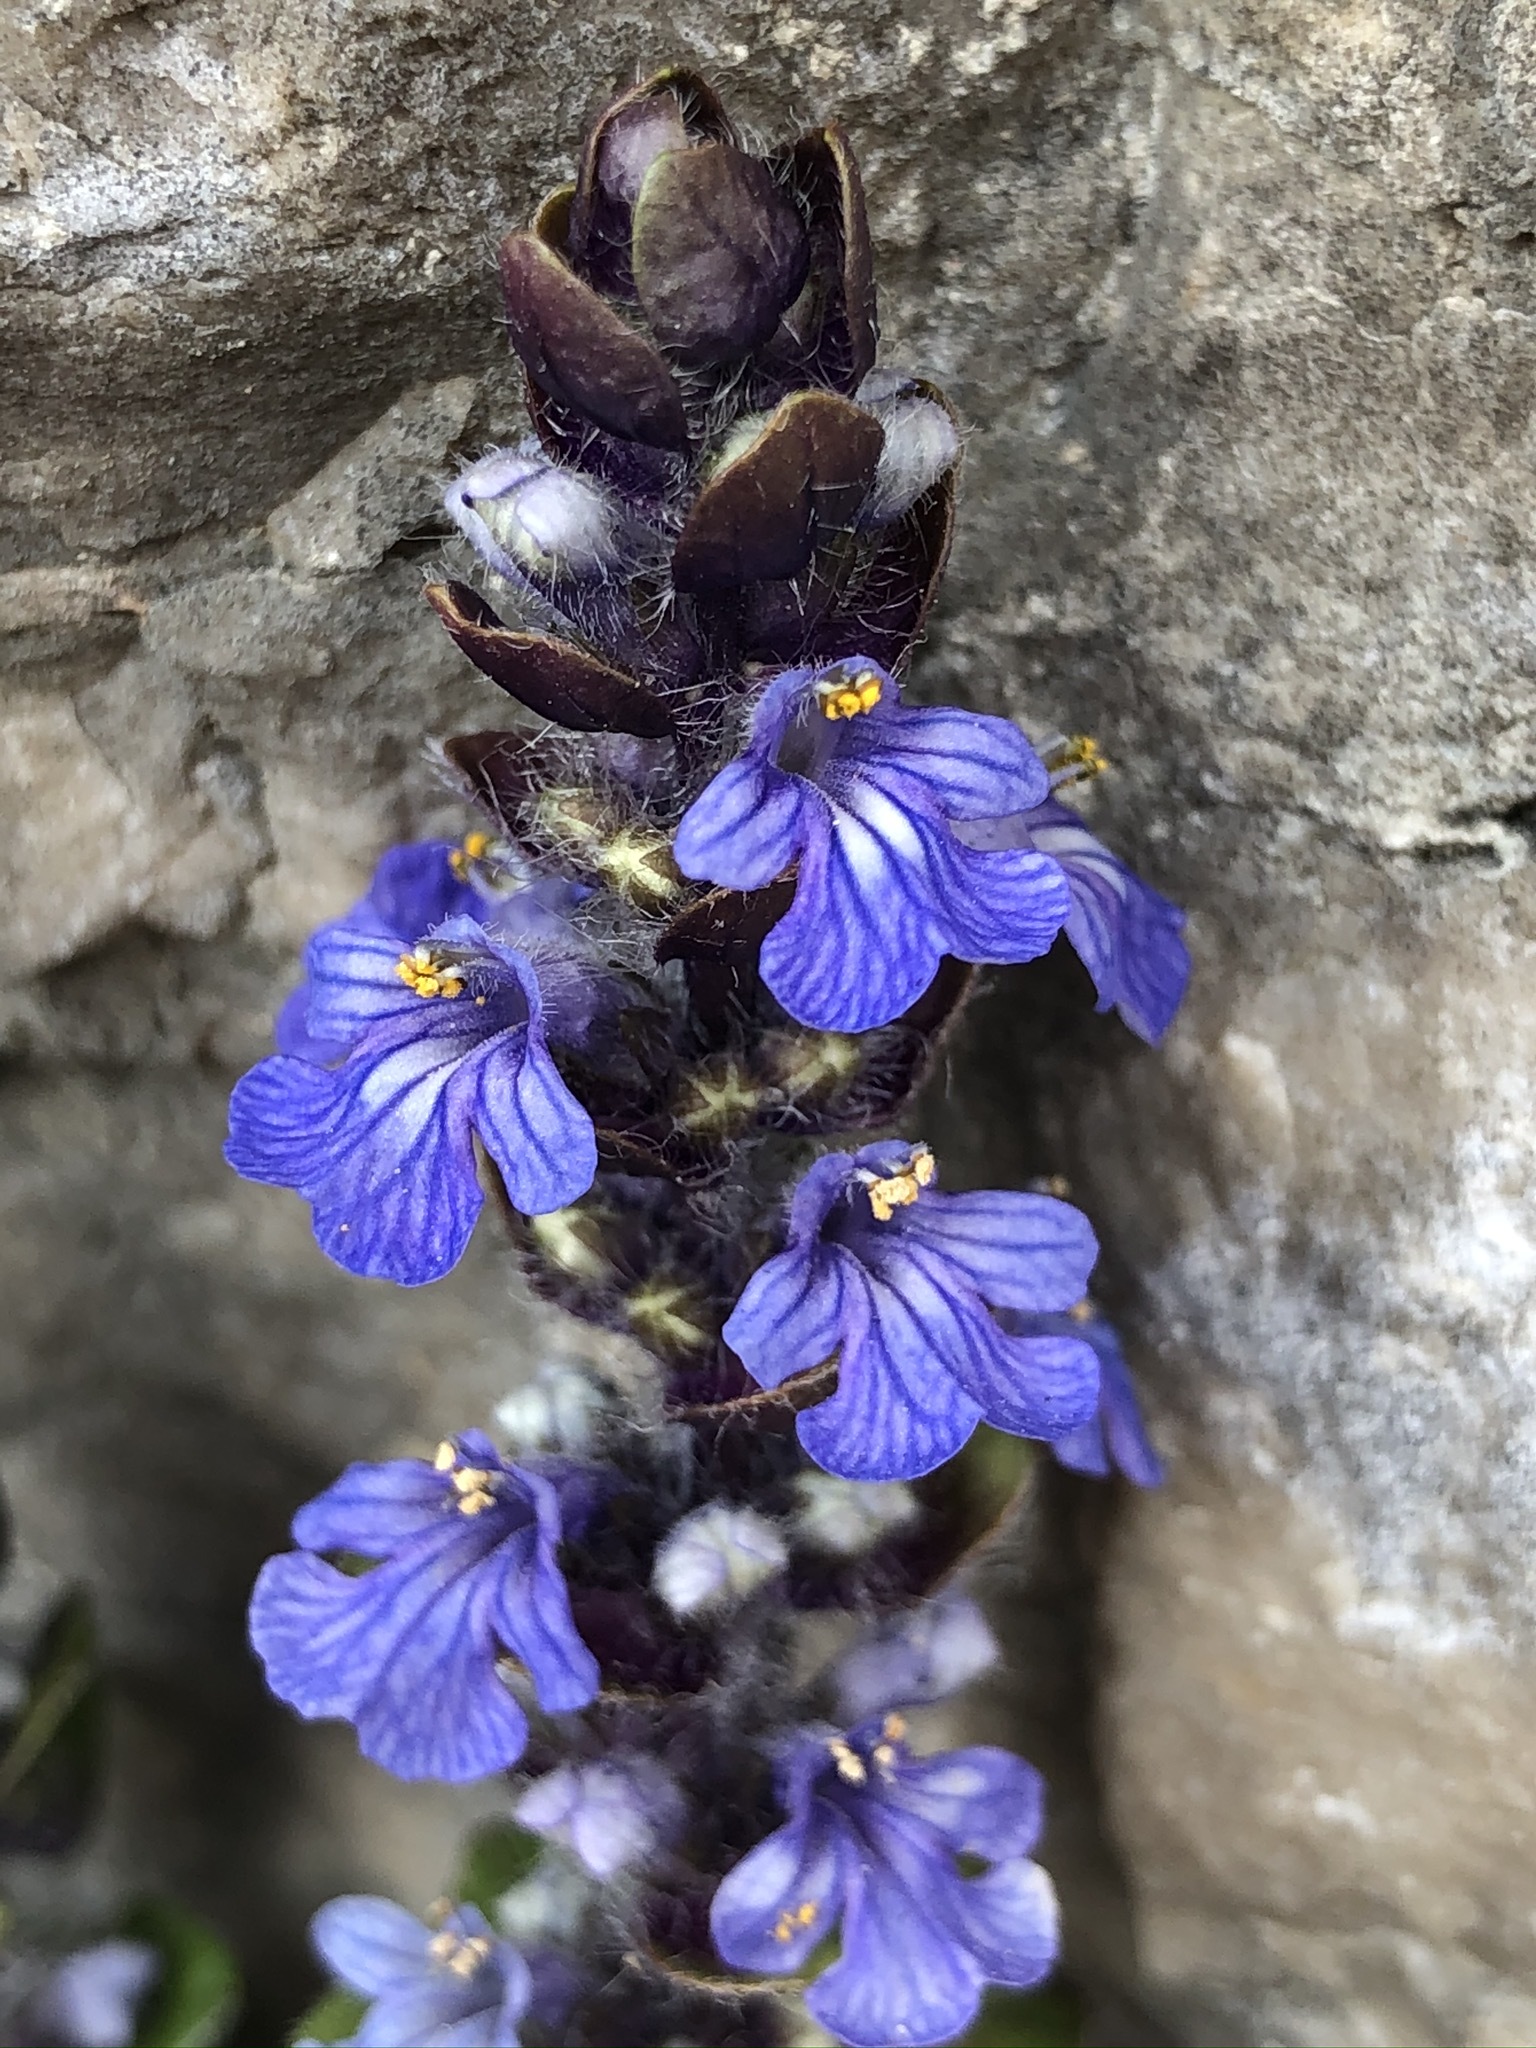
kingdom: Plantae
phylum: Tracheophyta
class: Magnoliopsida
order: Lamiales
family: Lamiaceae
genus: Ajuga
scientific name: Ajuga reptans
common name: Bugle
